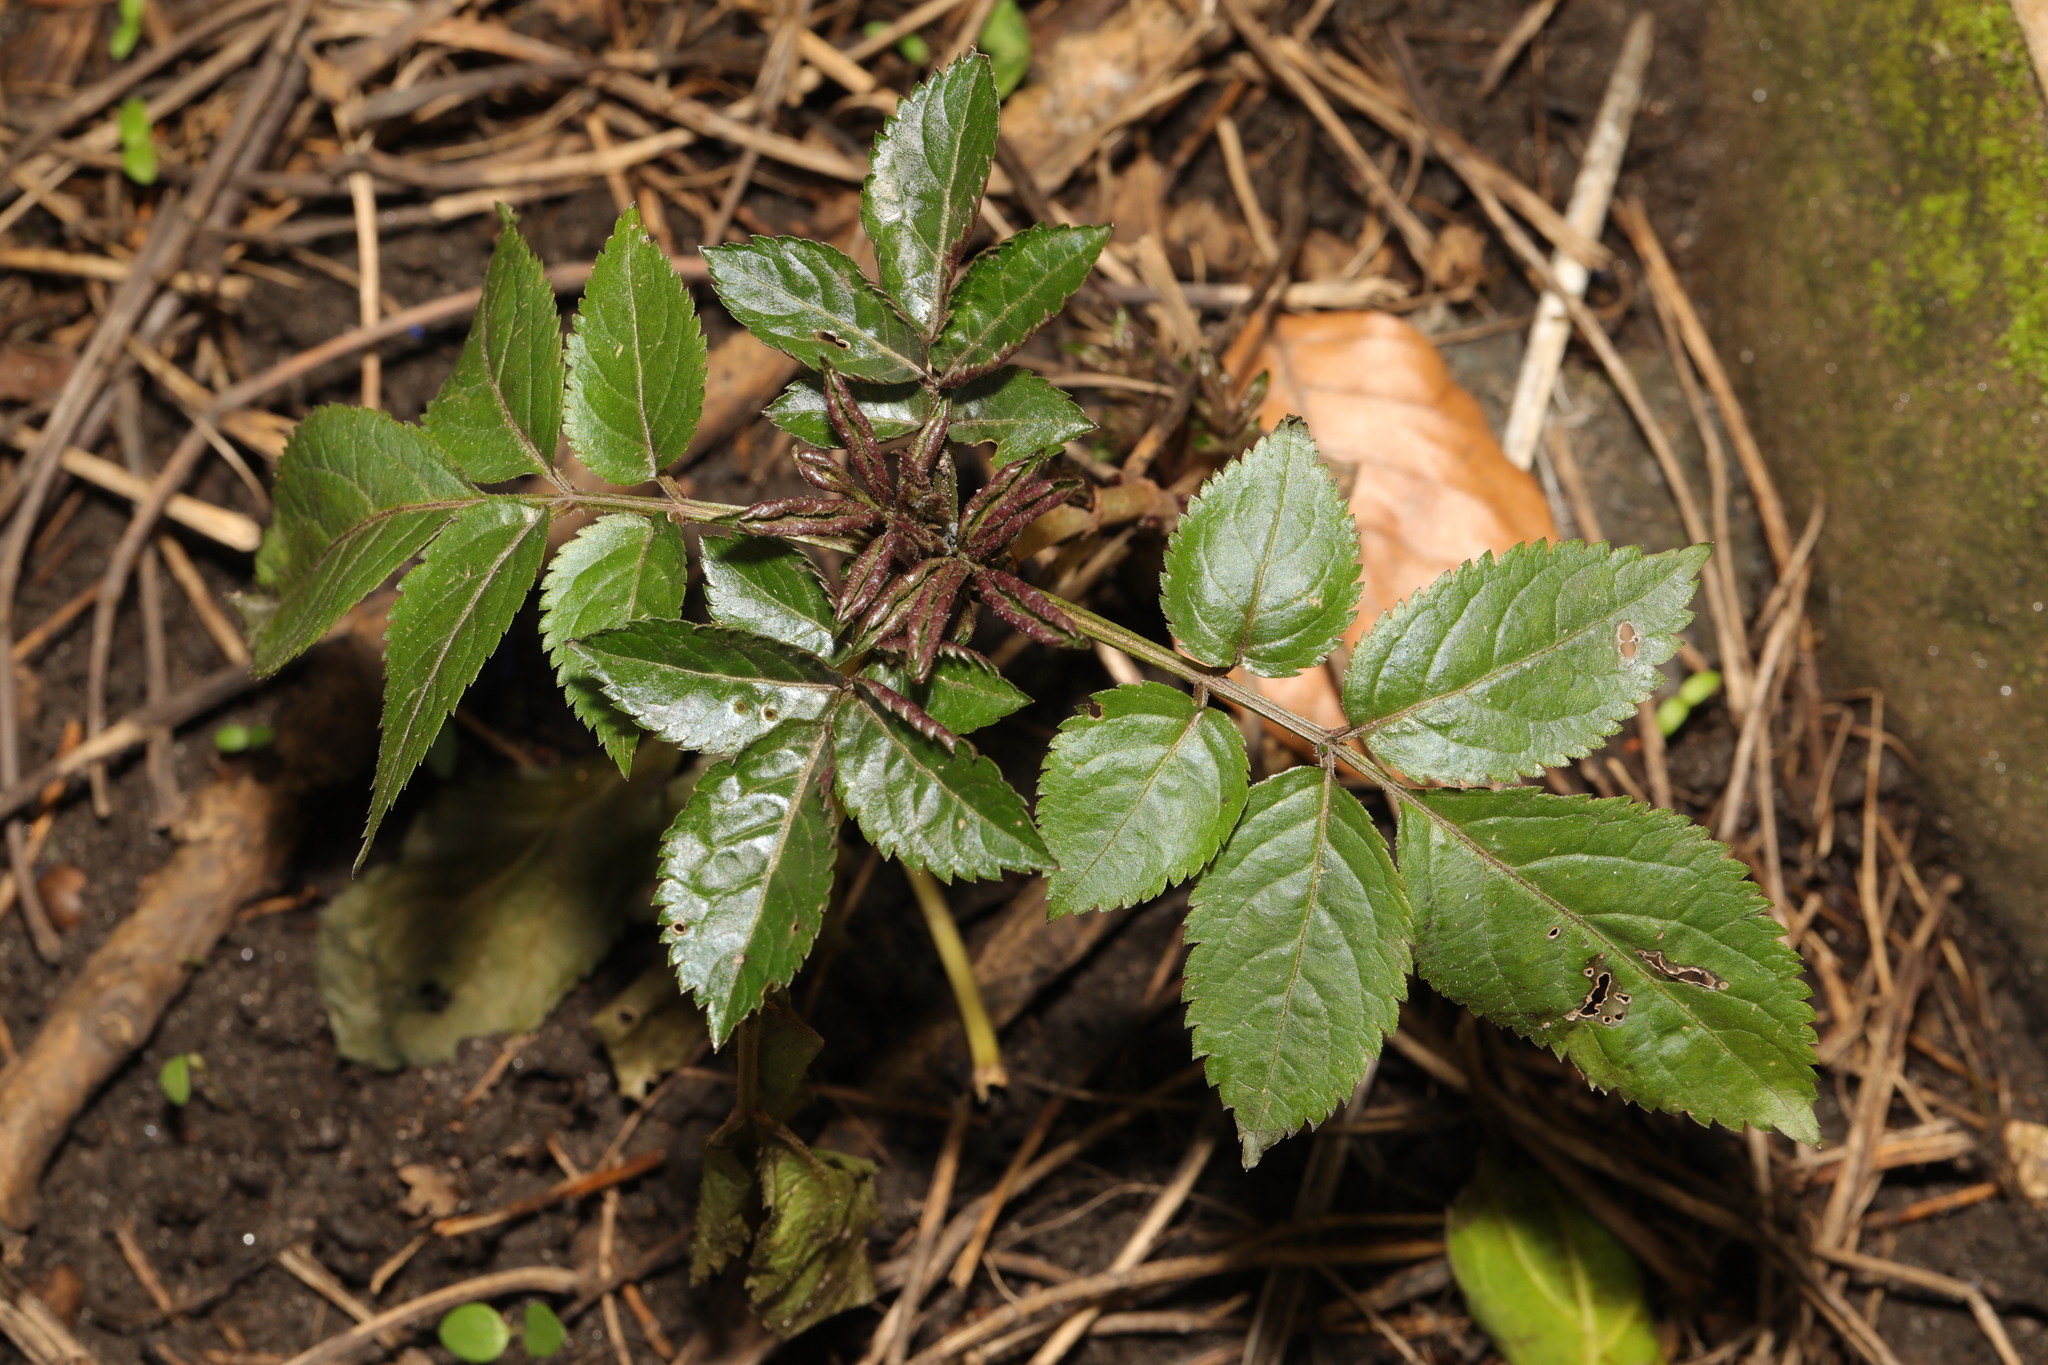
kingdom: Plantae
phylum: Tracheophyta
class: Magnoliopsida
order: Dipsacales
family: Viburnaceae
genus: Sambucus
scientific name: Sambucus nigra
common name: Elder
